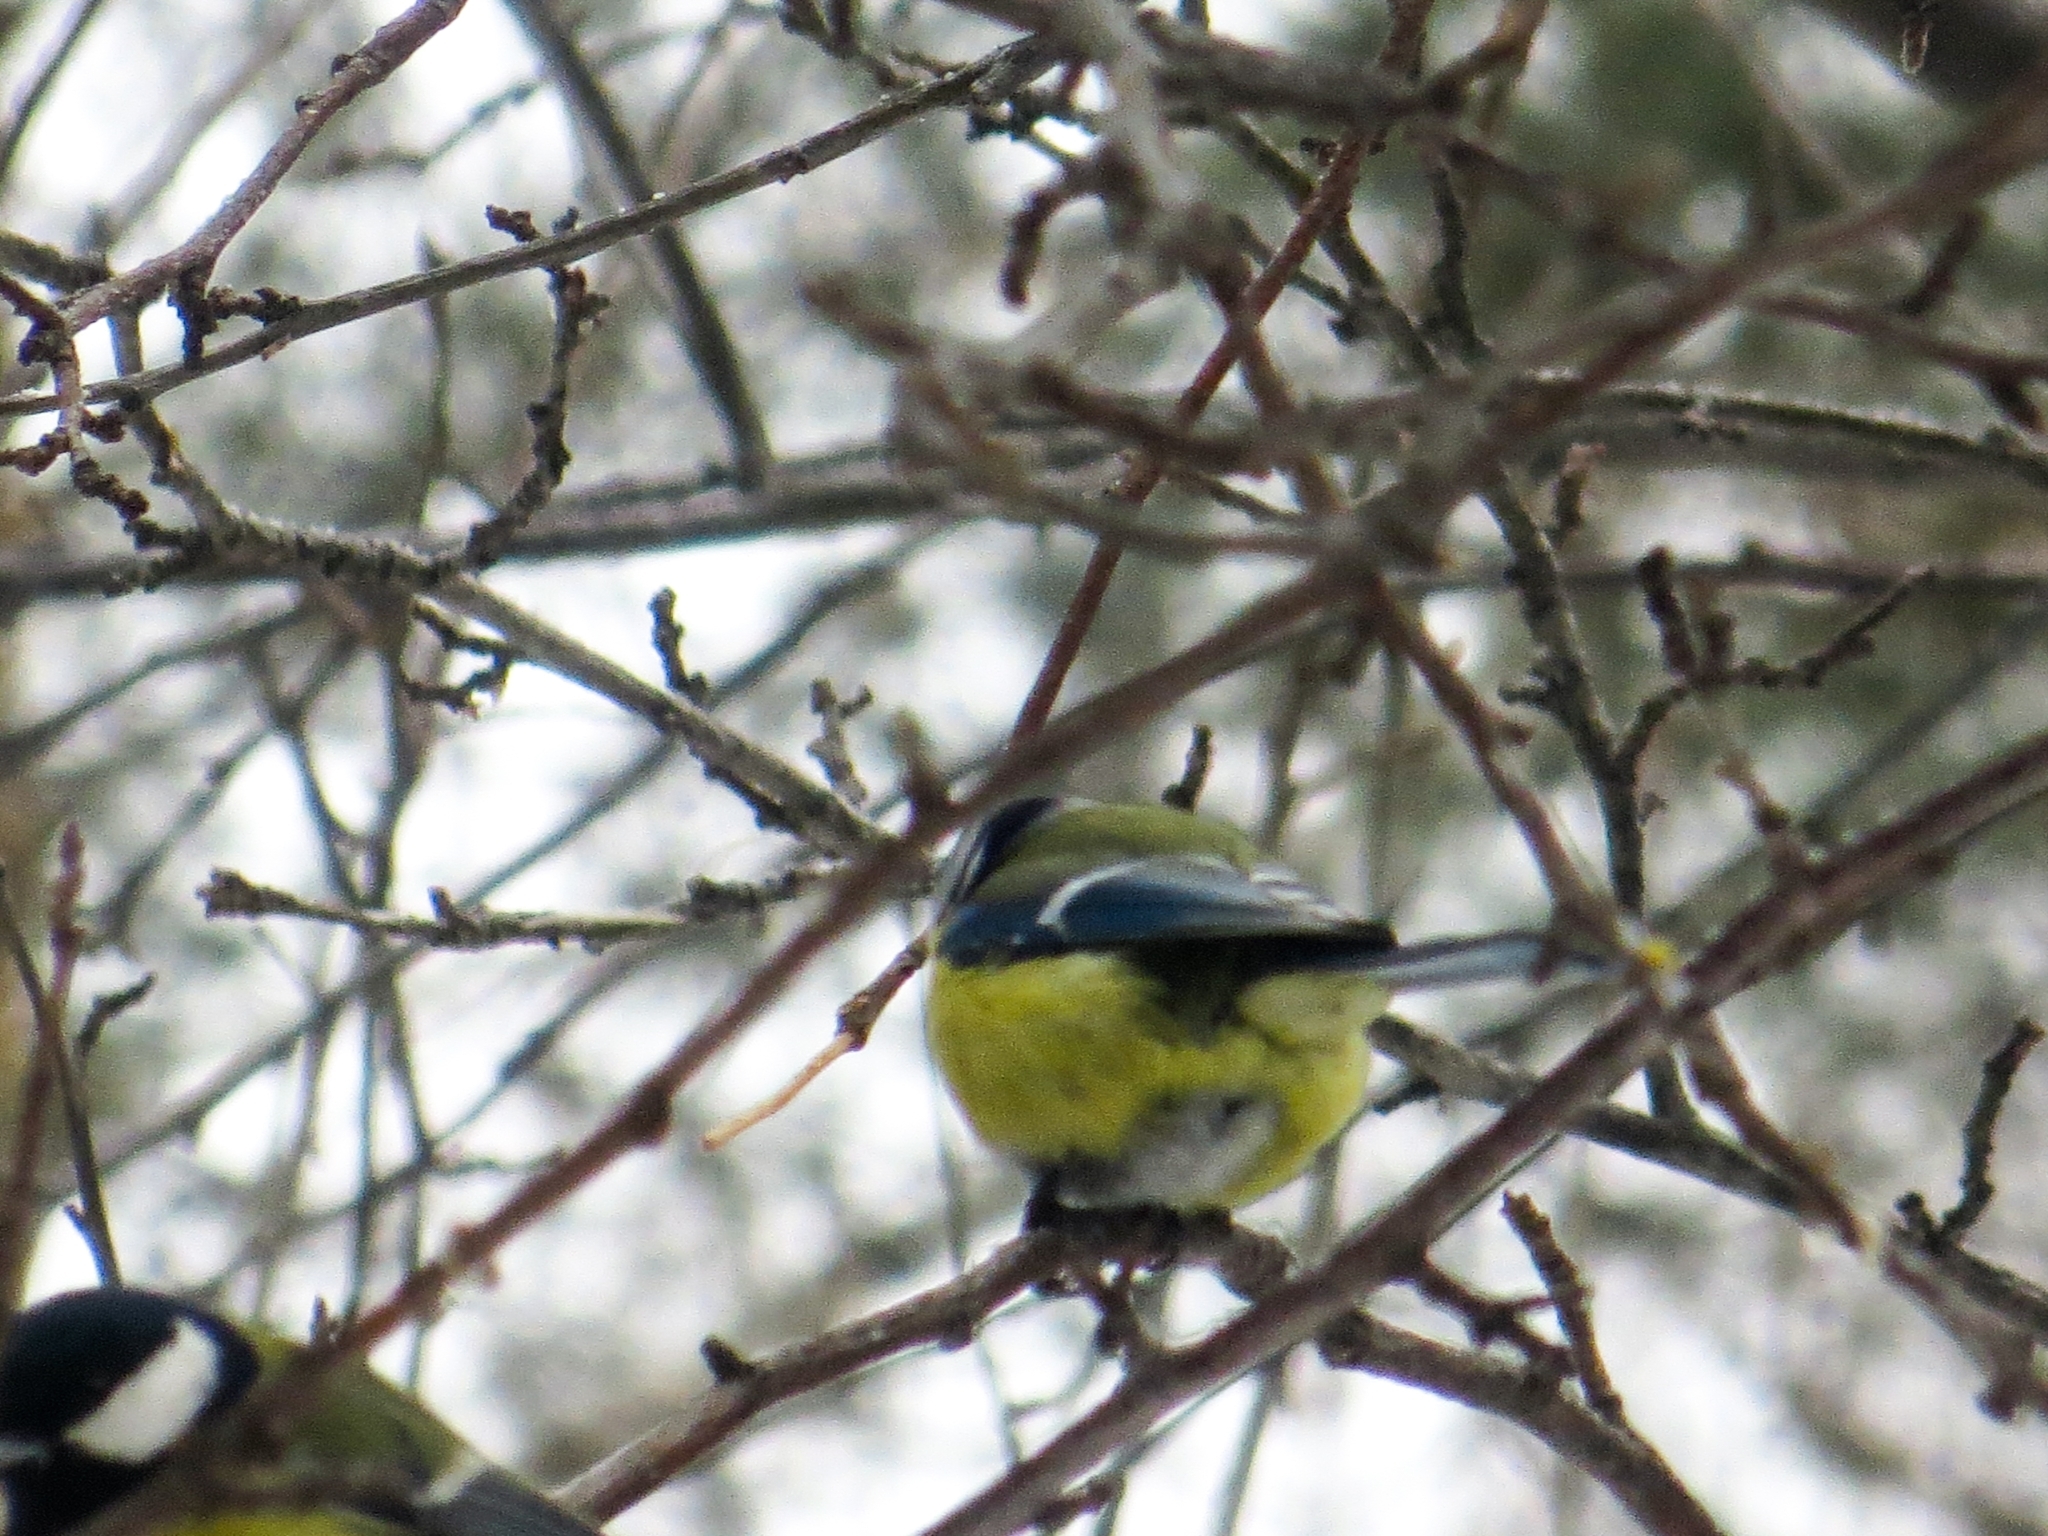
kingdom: Animalia
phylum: Chordata
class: Aves
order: Passeriformes
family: Paridae
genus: Cyanistes
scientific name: Cyanistes caeruleus
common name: Eurasian blue tit
